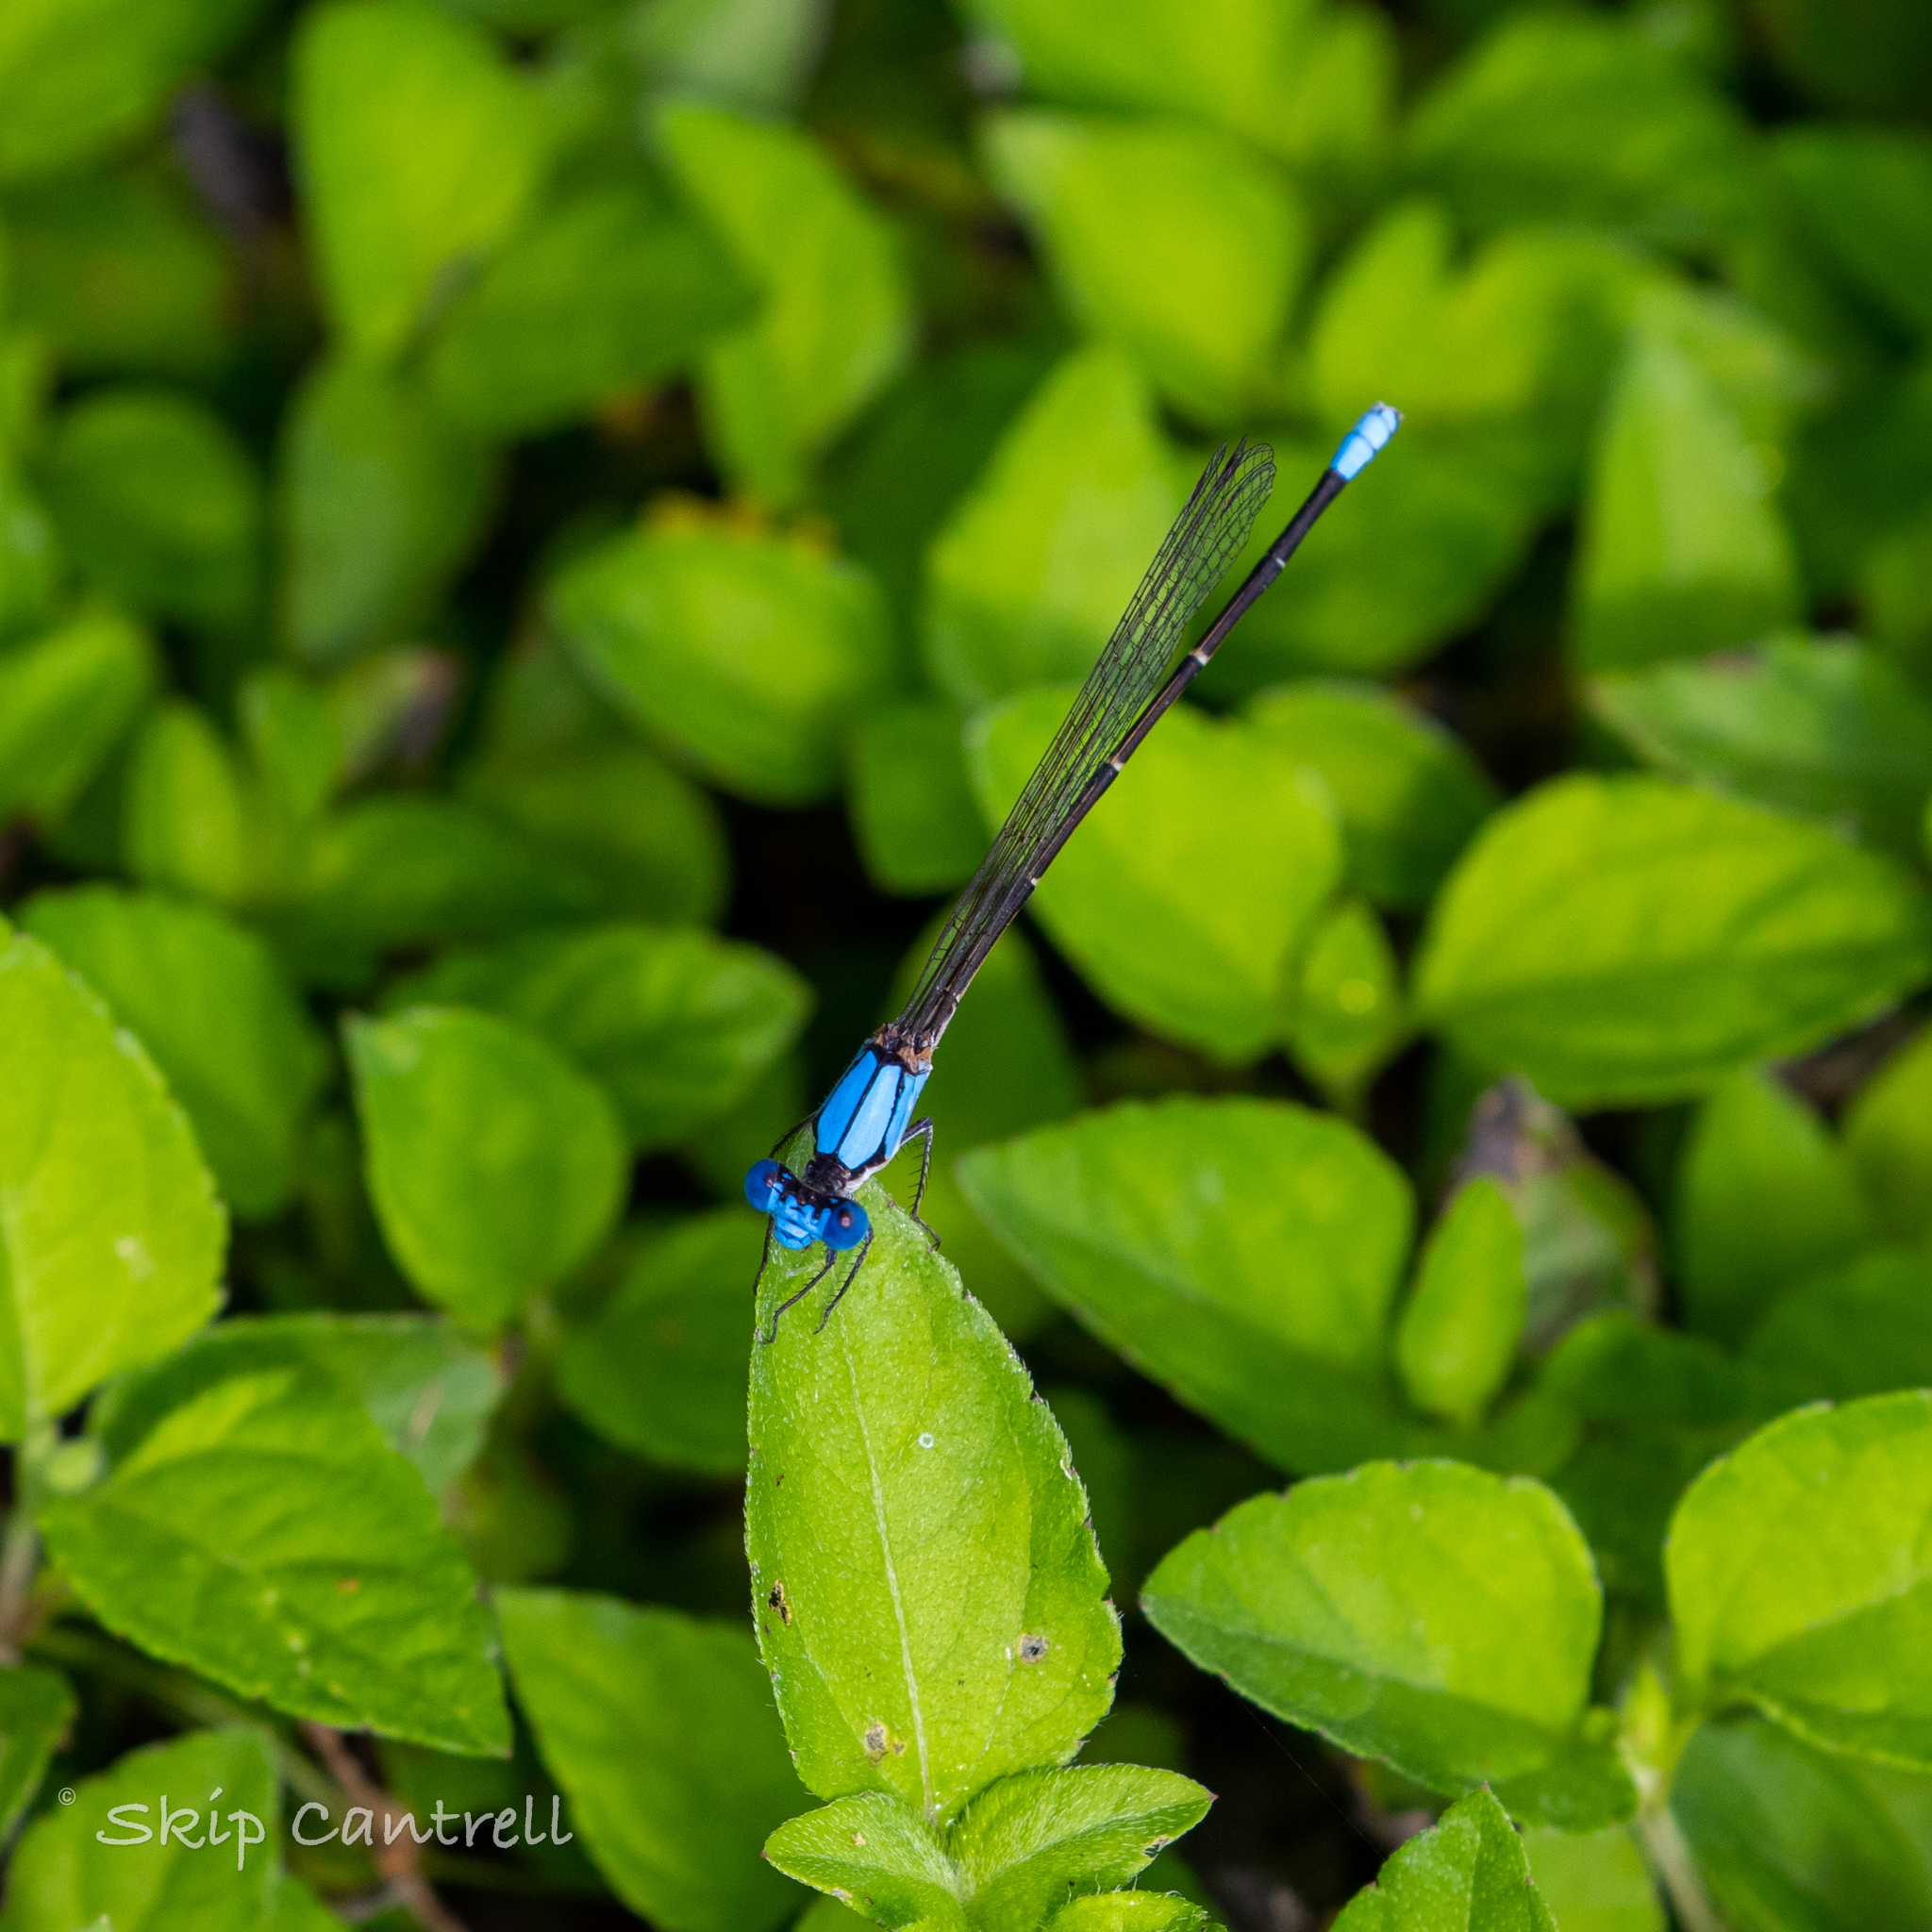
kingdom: Animalia
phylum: Arthropoda
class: Insecta
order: Odonata
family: Coenagrionidae
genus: Argia
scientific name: Argia apicalis
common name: Blue-fronted dancer
